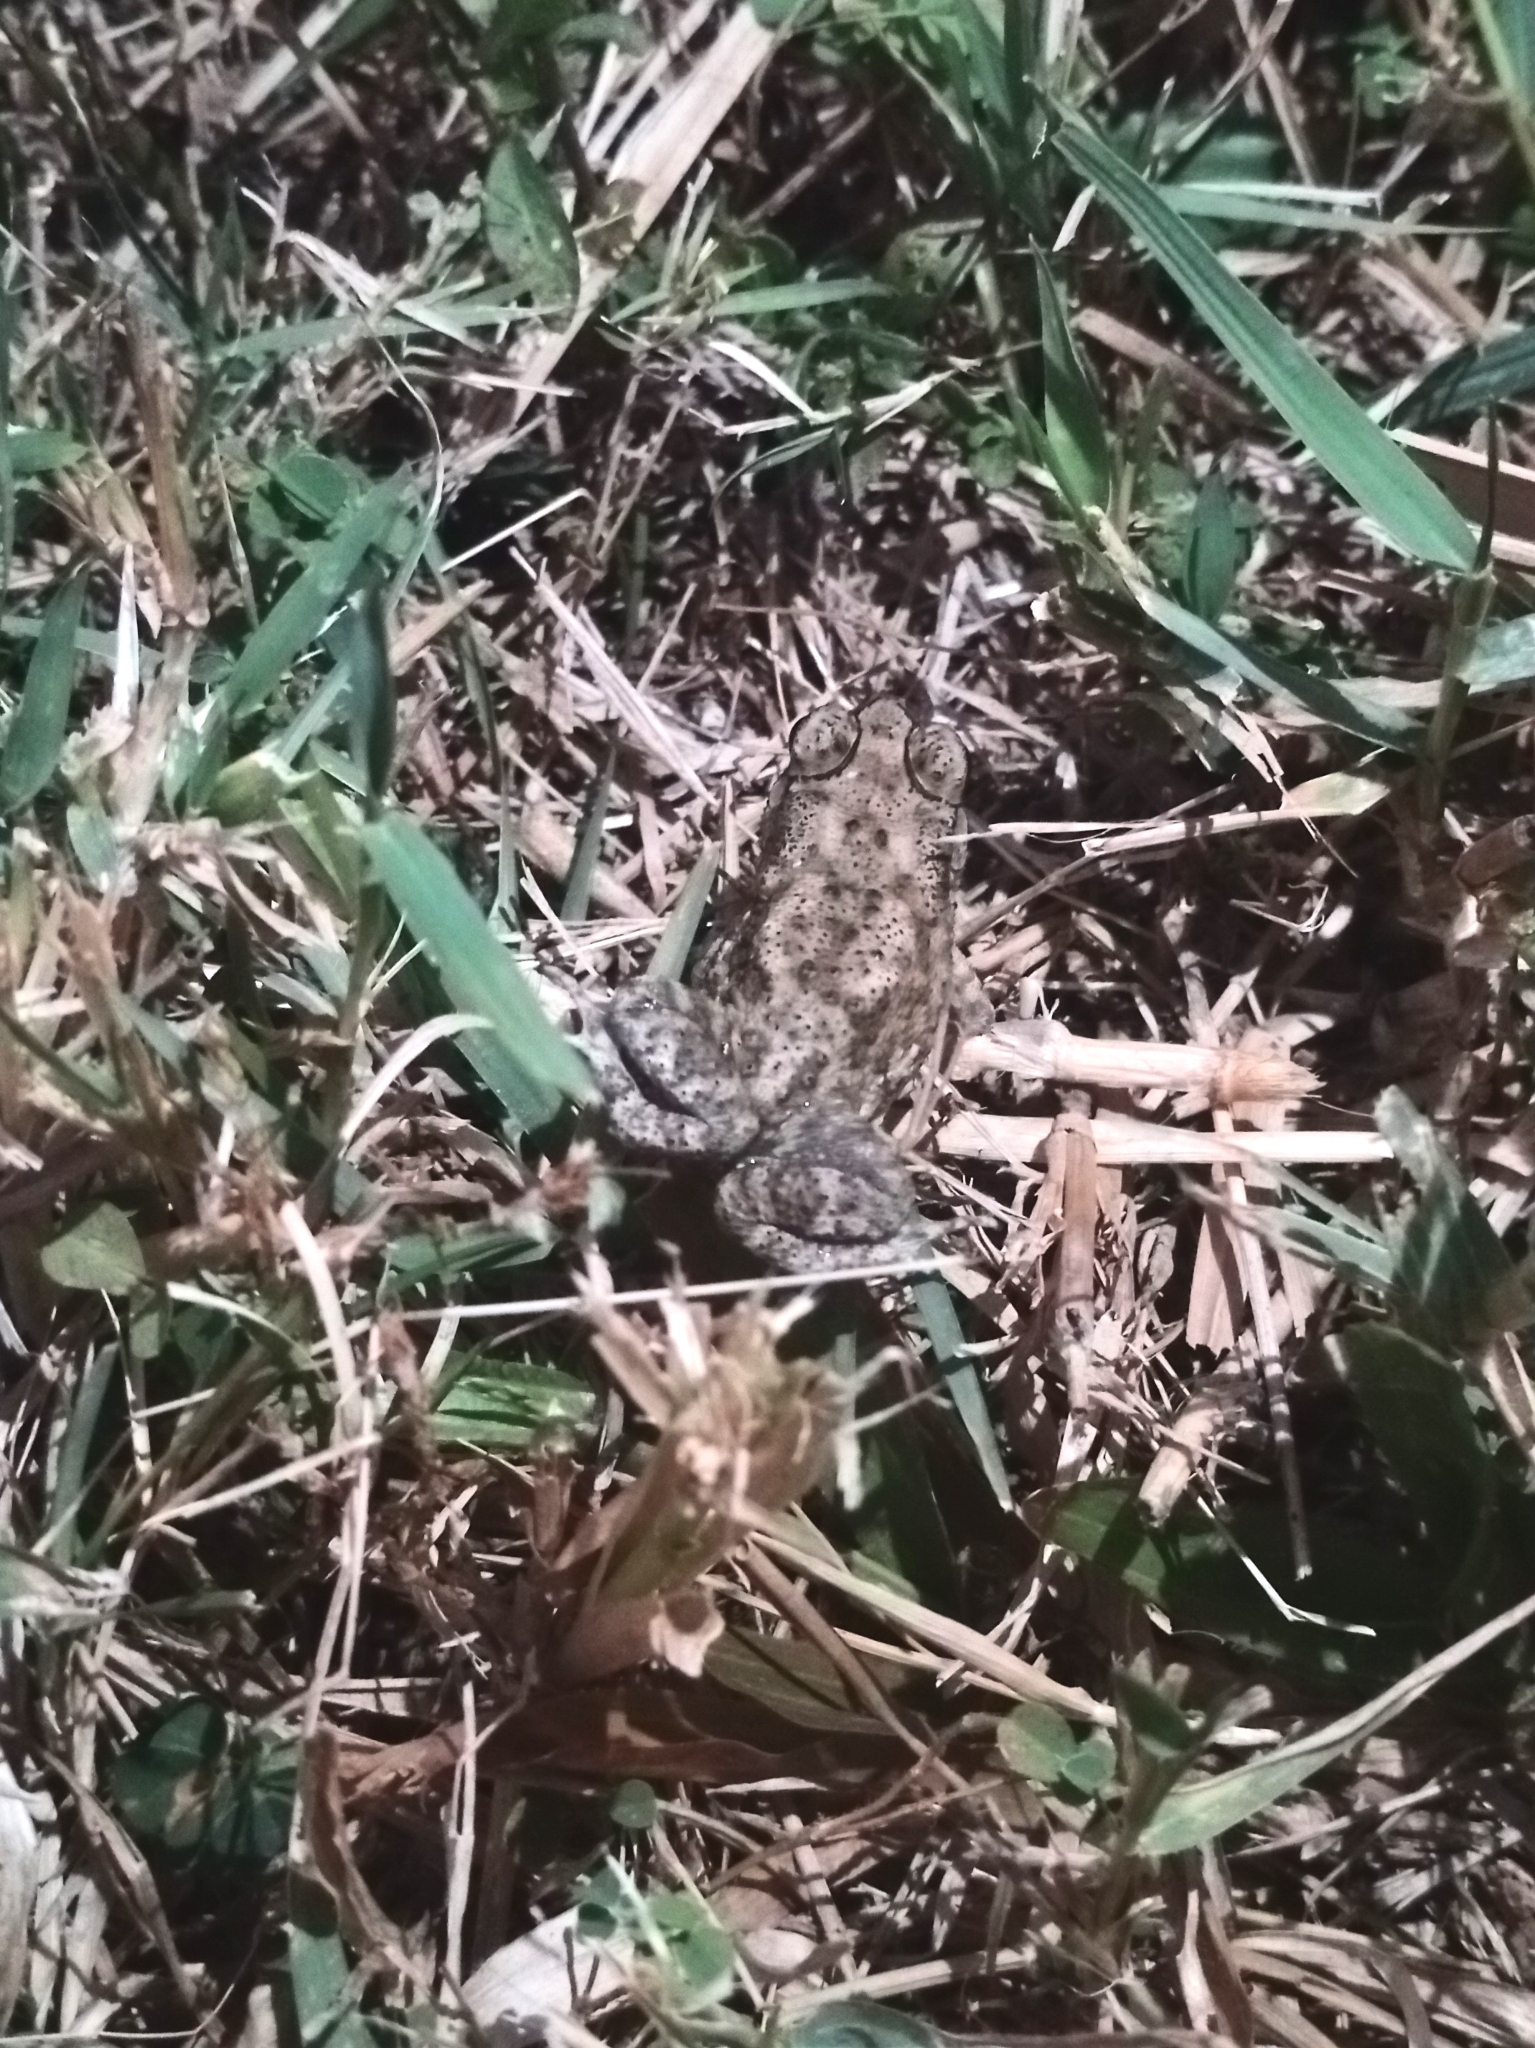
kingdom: Animalia
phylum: Chordata
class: Amphibia
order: Anura
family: Bufonidae
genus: Duttaphrynus
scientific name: Duttaphrynus melanostictus
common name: Common sunda toad
